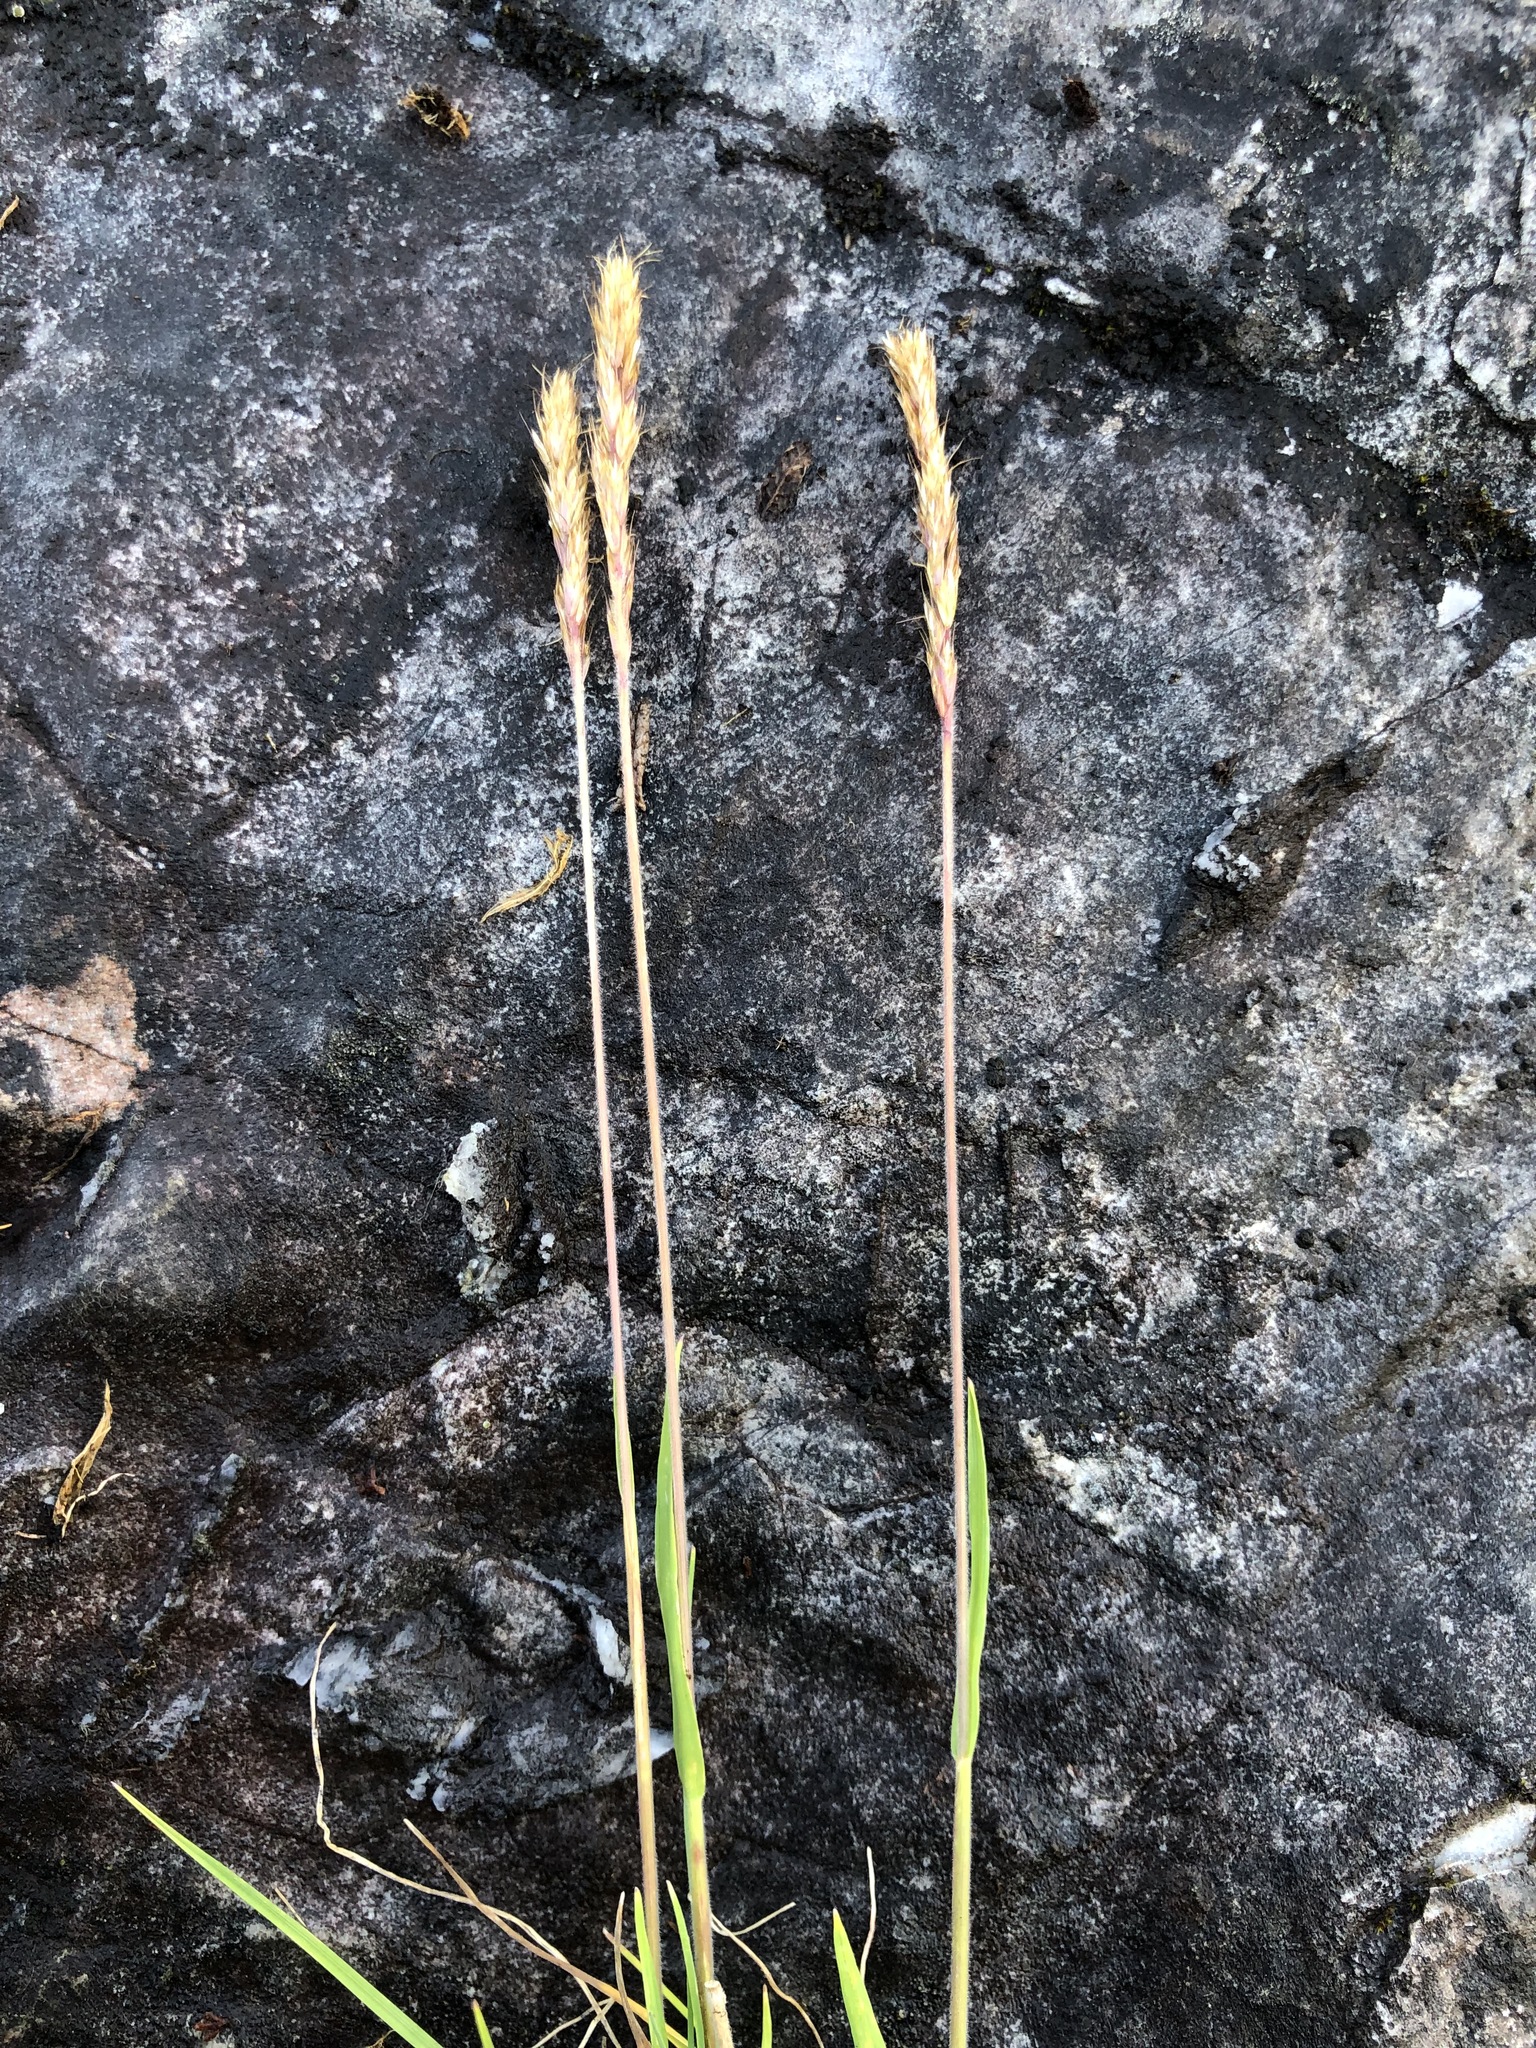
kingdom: Plantae
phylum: Tracheophyta
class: Liliopsida
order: Poales
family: Poaceae
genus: Koeleria
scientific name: Koeleria spicata
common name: Mountain trisetum
